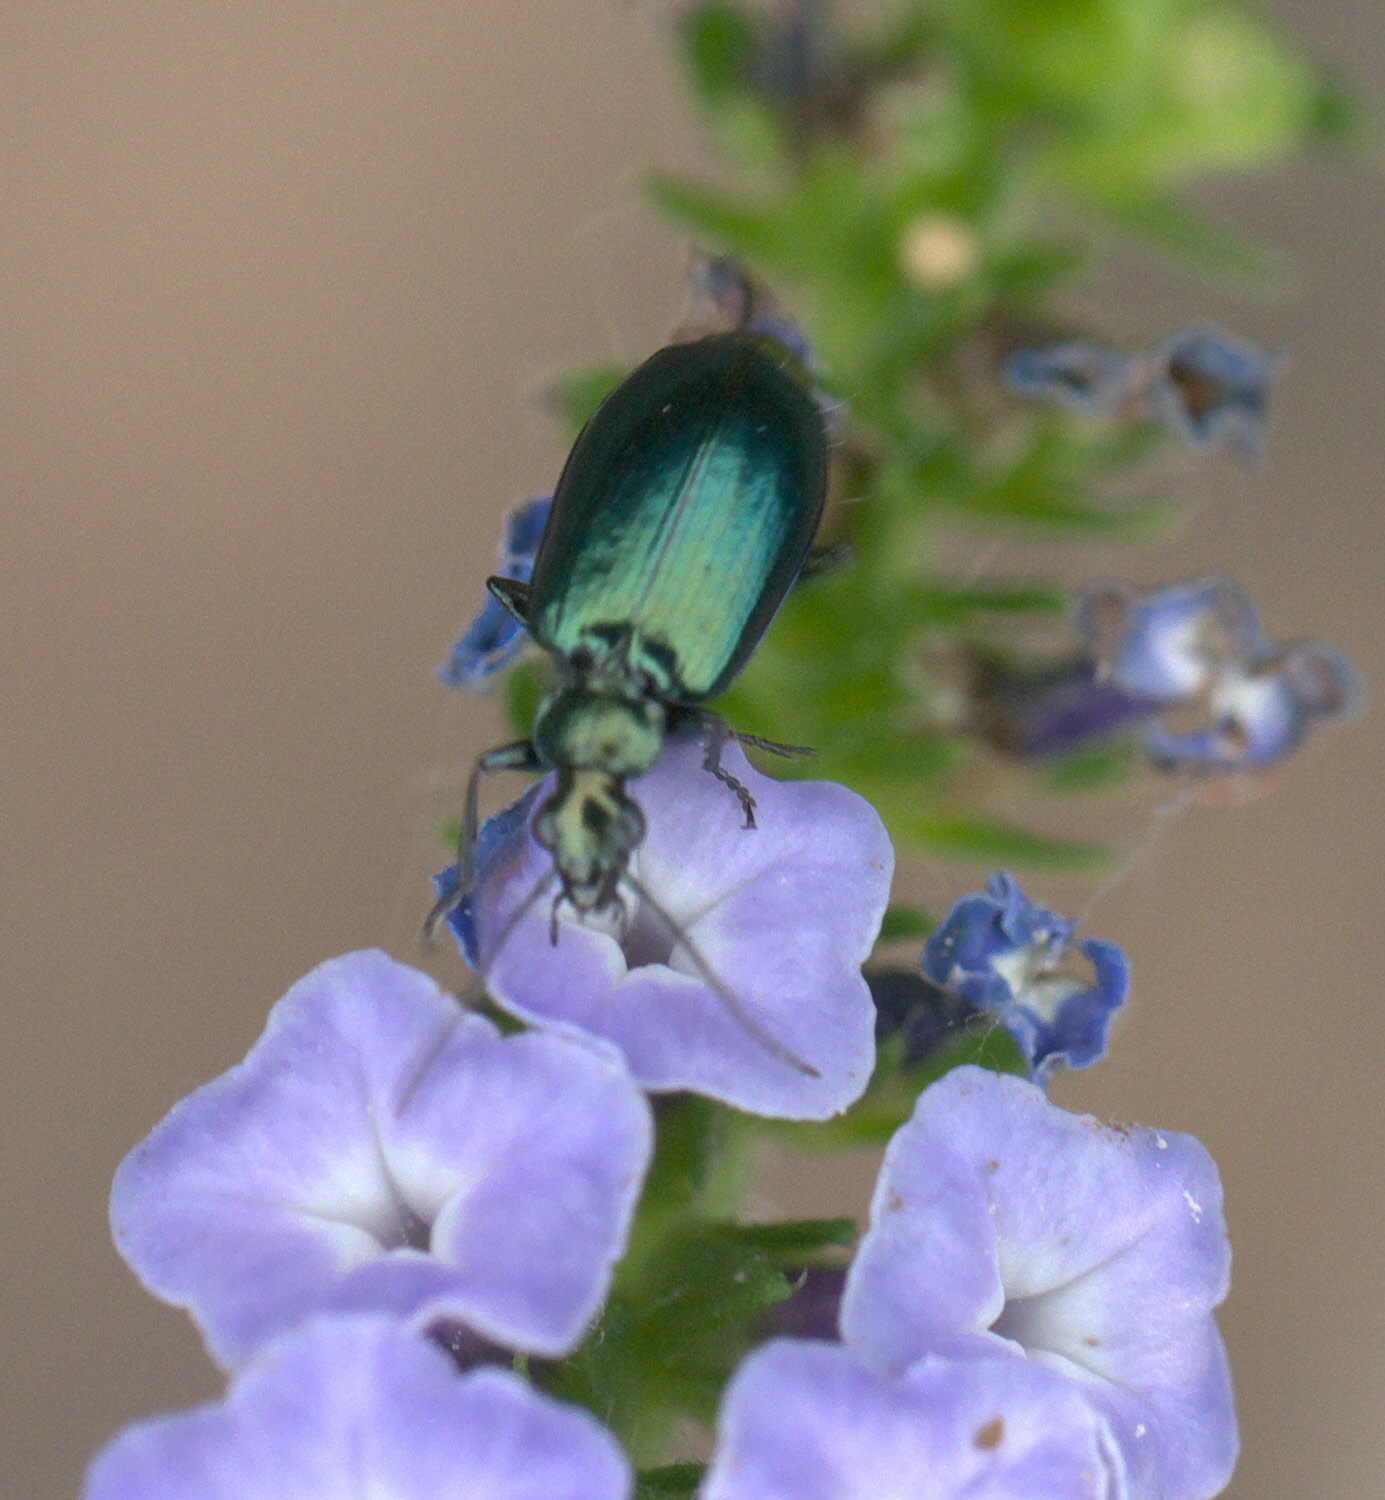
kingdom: Animalia
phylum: Arthropoda
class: Insecta
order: Coleoptera
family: Carabidae
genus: Lebia
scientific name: Lebia viridis
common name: Flower lebia beetle
